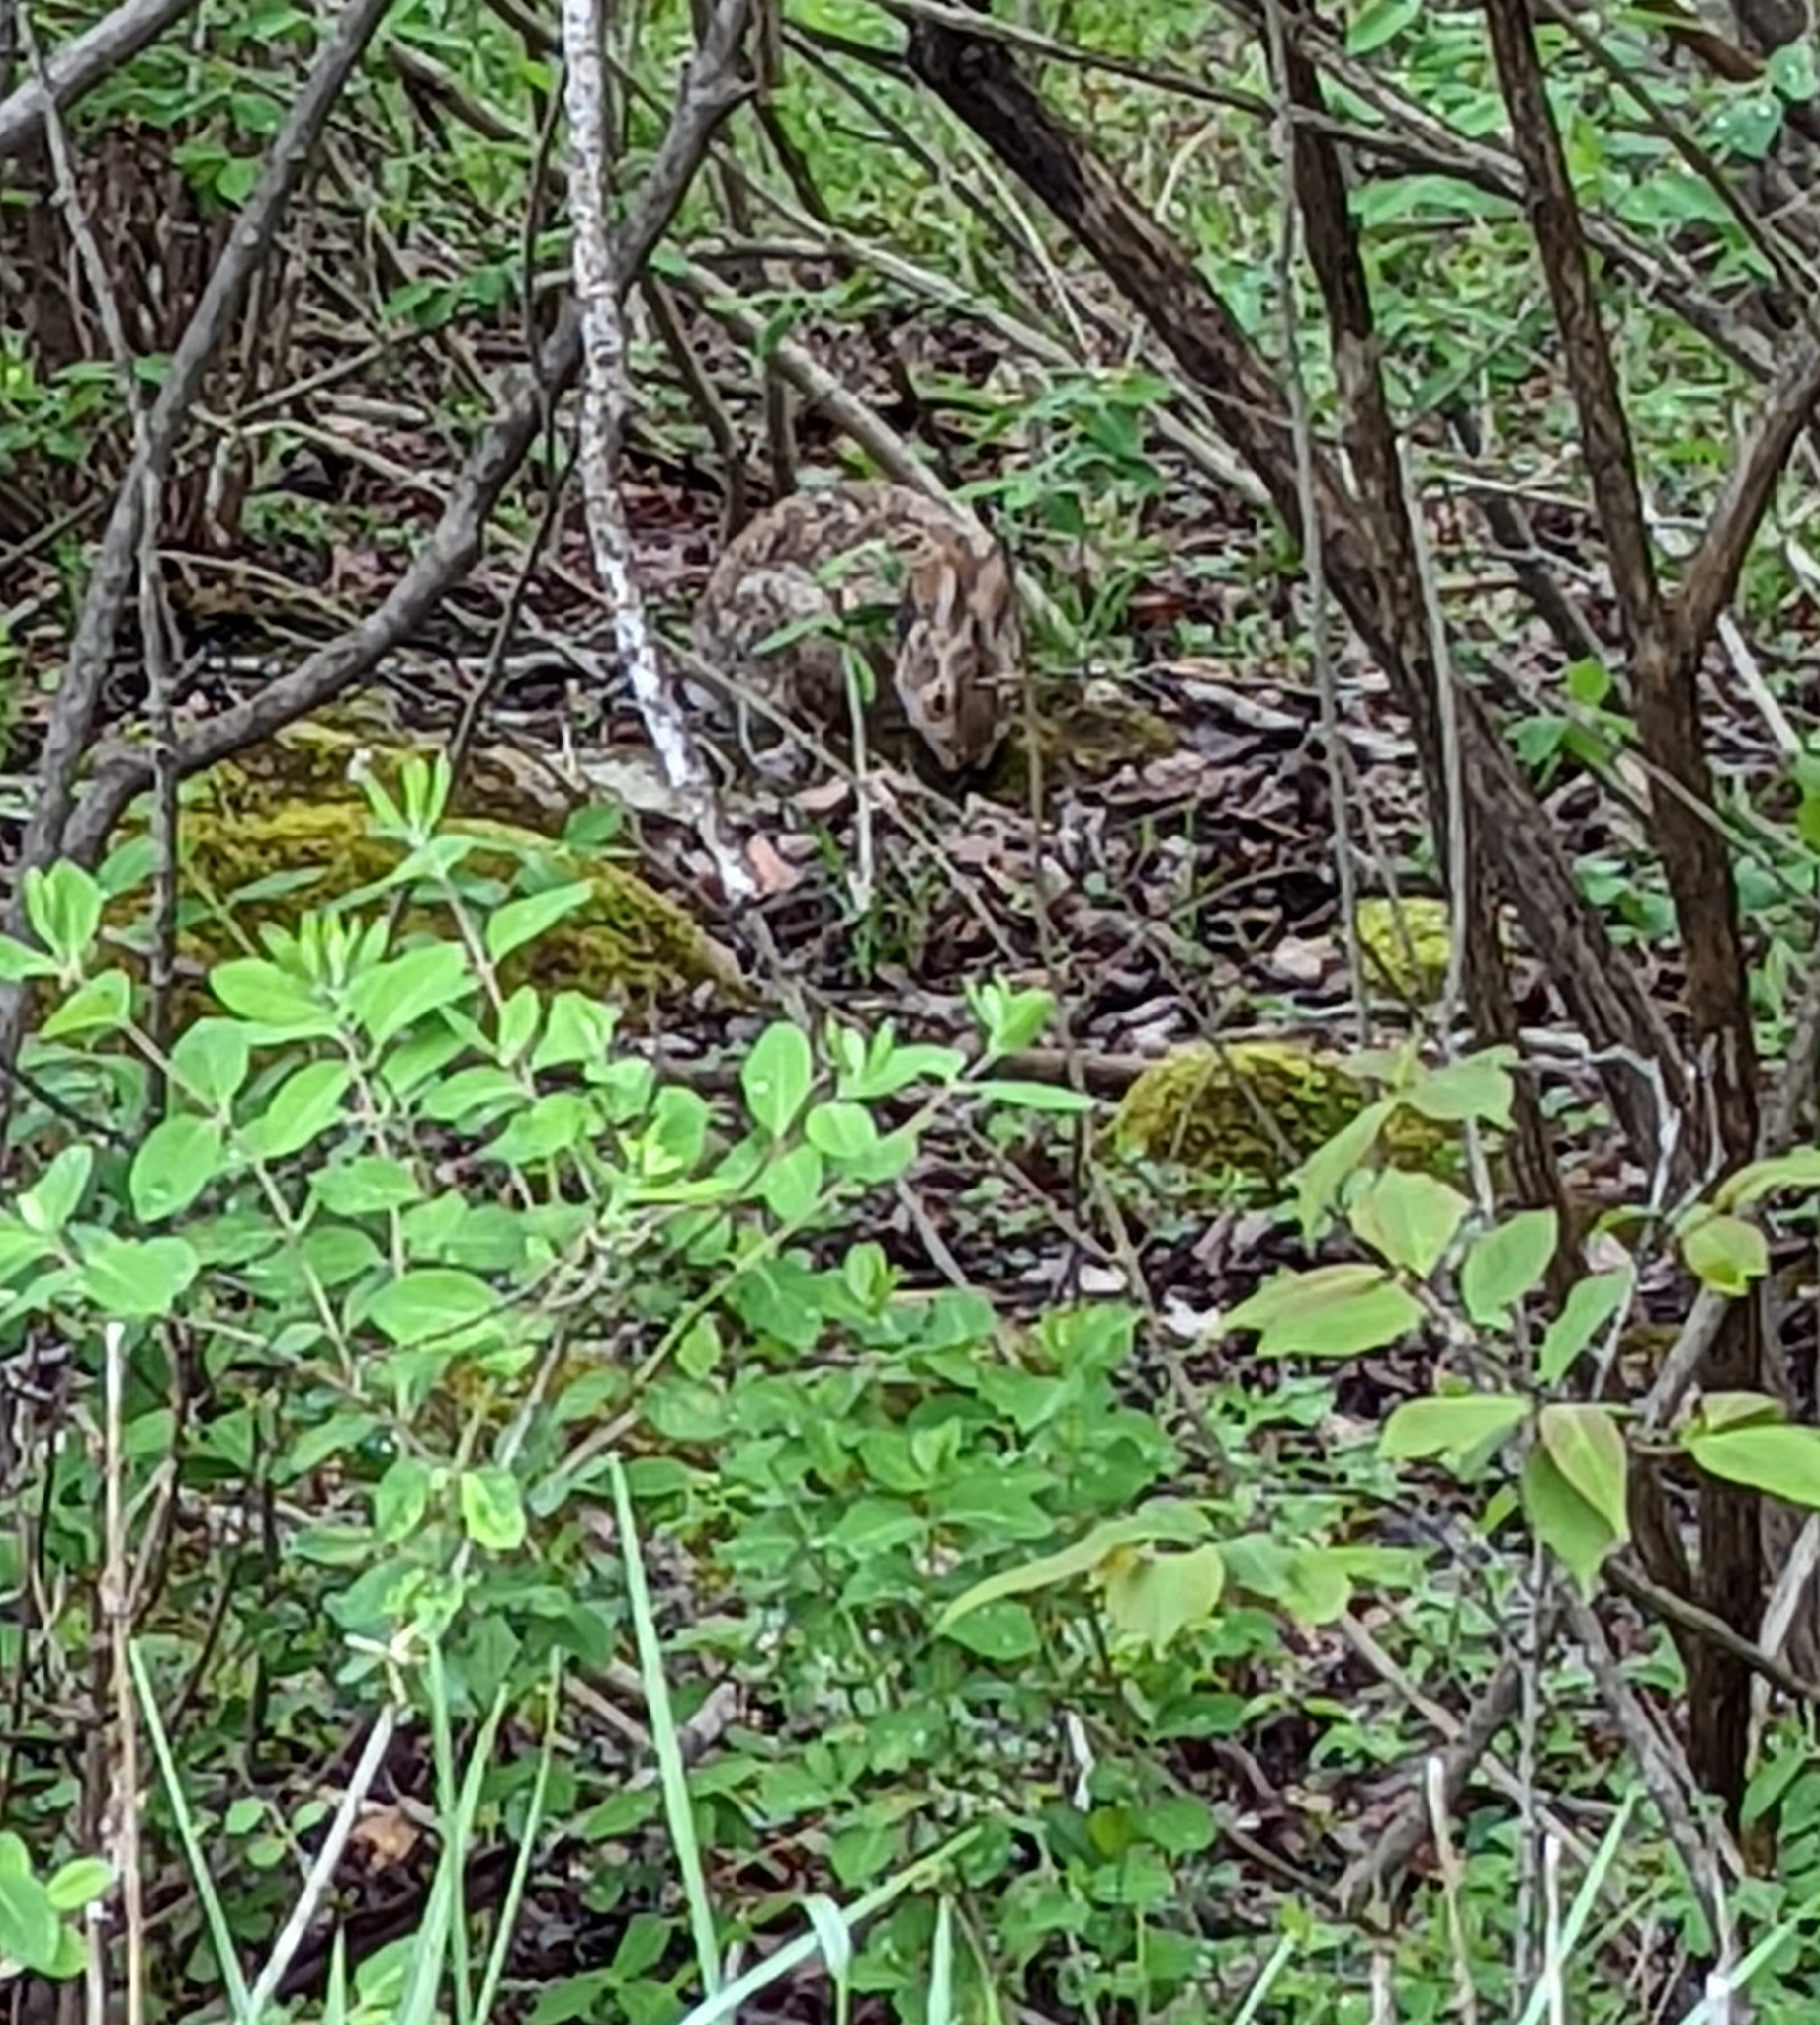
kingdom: Animalia
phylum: Chordata
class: Mammalia
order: Lagomorpha
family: Leporidae
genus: Sylvilagus
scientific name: Sylvilagus obscurus
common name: Appalachian cottontail
